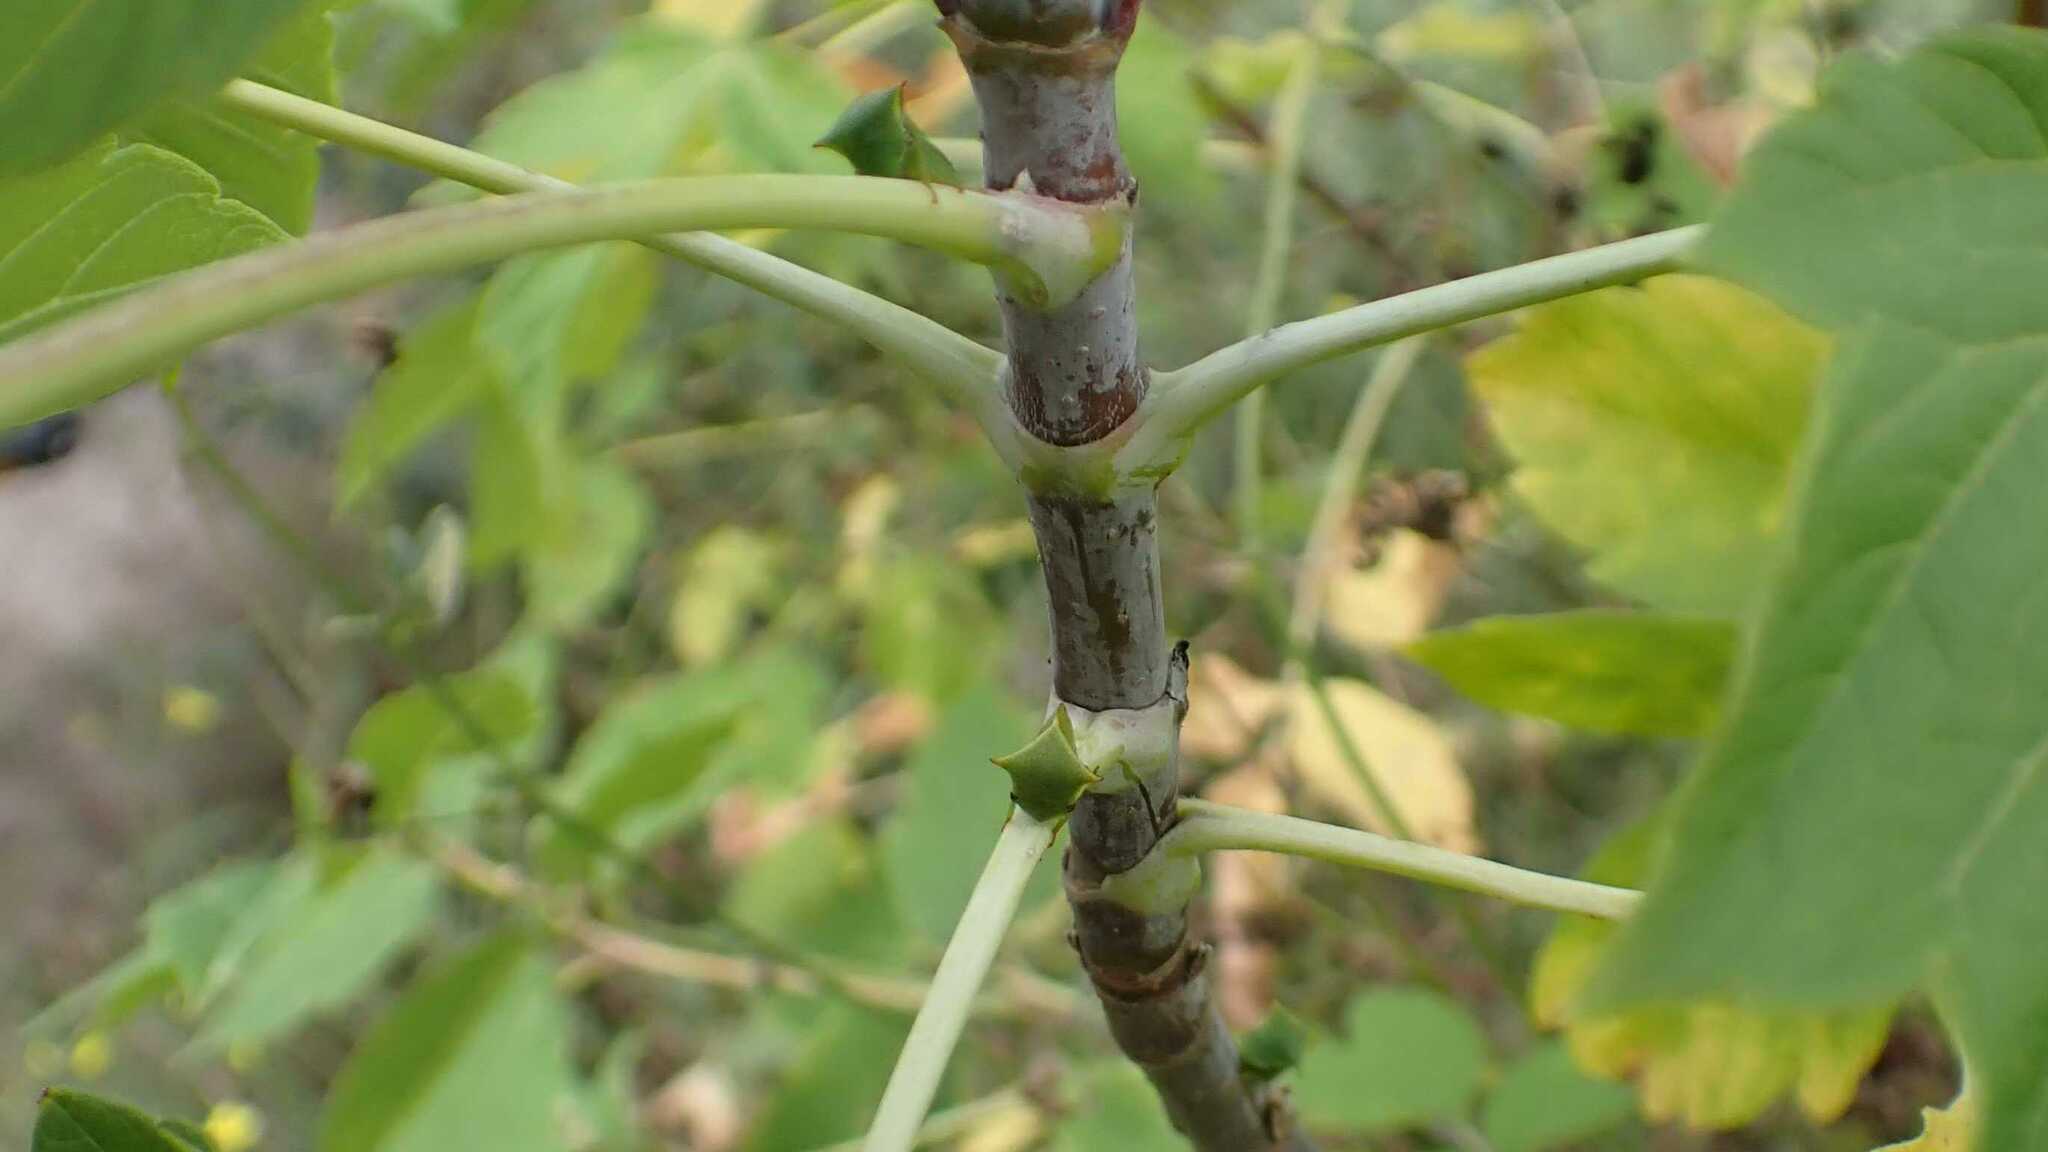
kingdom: Animalia
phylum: Arthropoda
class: Insecta
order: Hemiptera
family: Membracidae
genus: Stictocephala
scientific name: Stictocephala bisonia
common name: American buffalo treehopper
